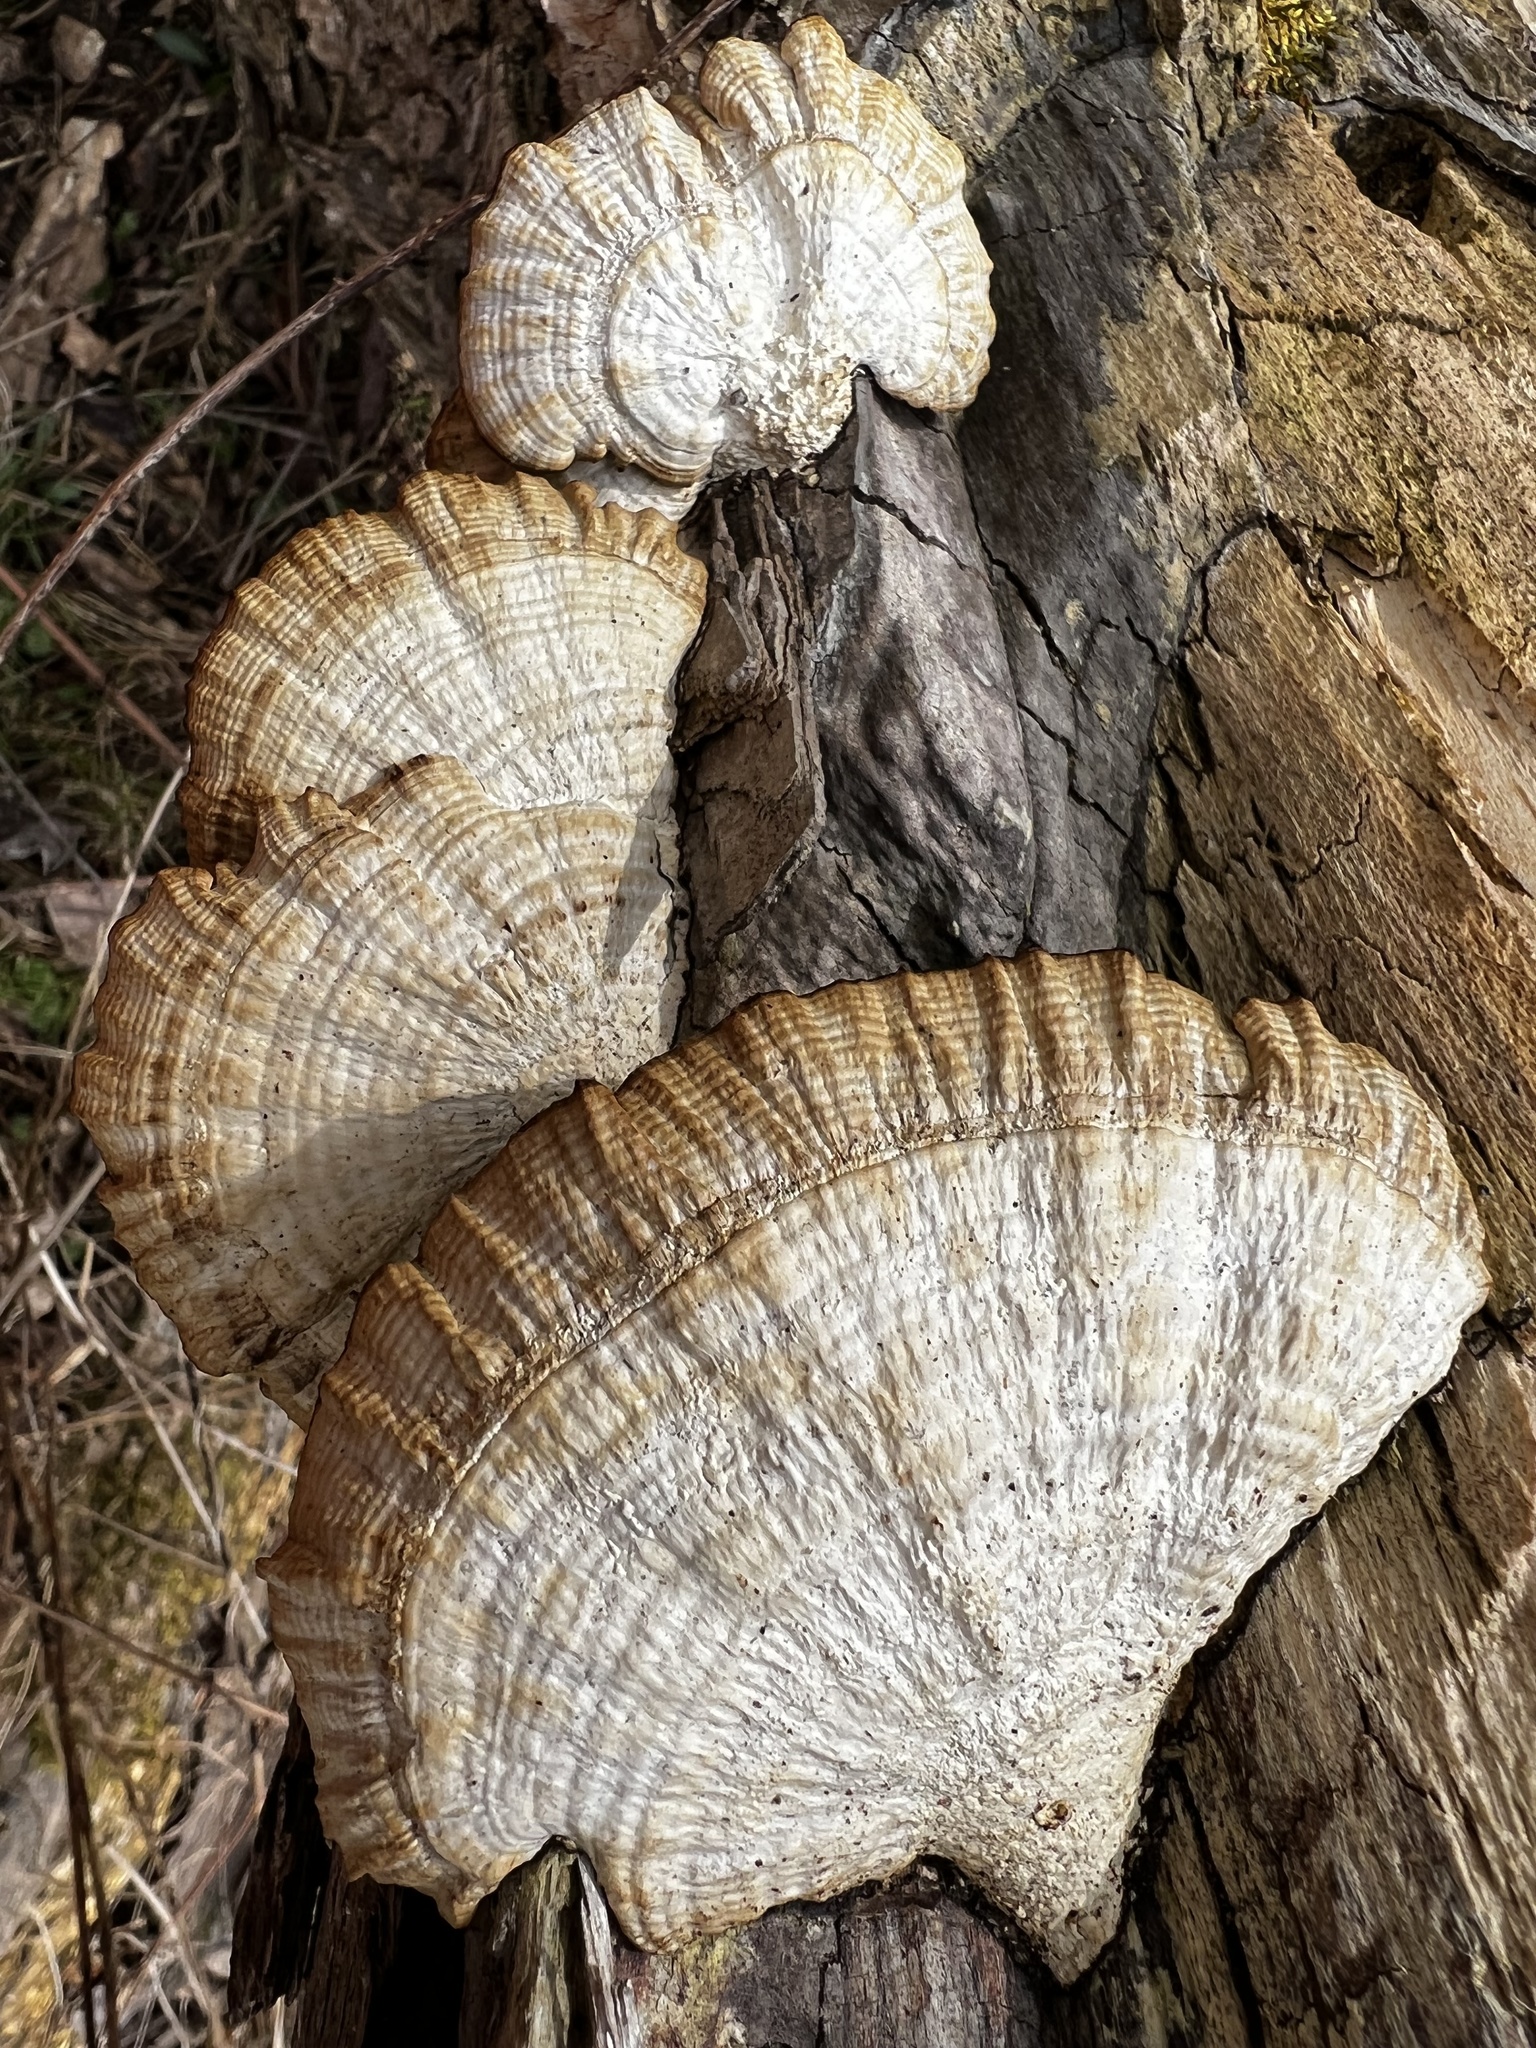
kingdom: Fungi
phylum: Basidiomycota
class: Agaricomycetes
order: Polyporales
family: Polyporaceae
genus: Daedaleopsis
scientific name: Daedaleopsis confragosa
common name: Blushing bracket
